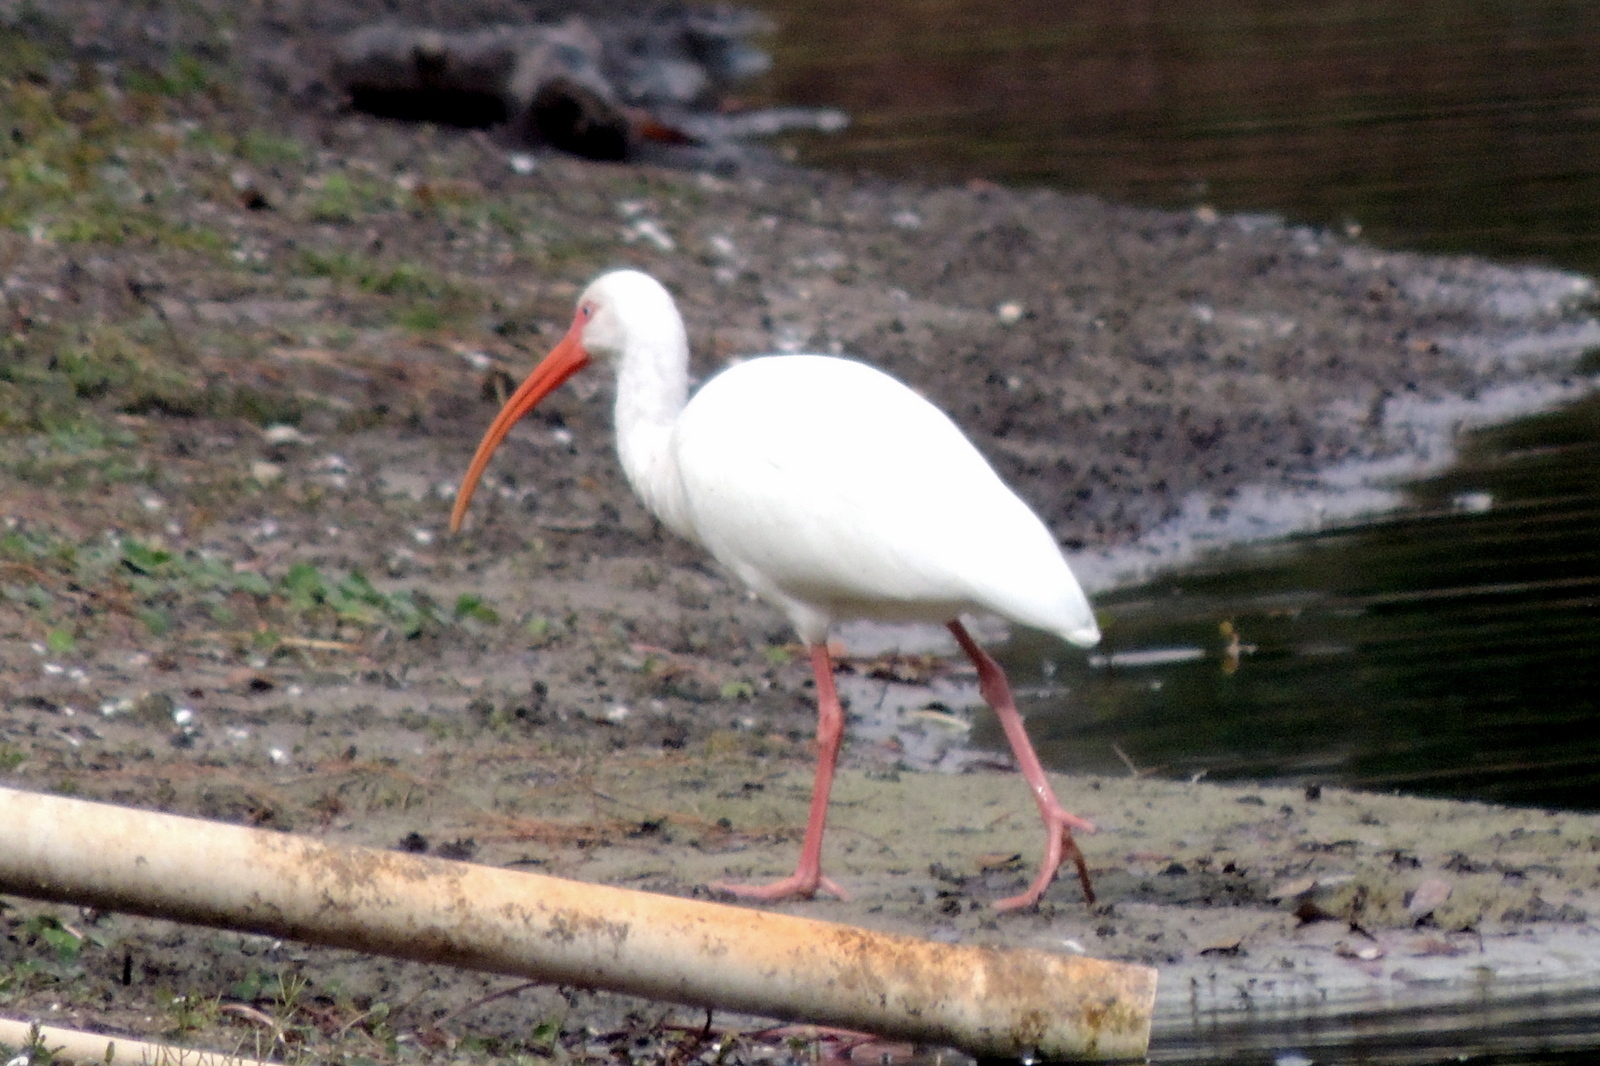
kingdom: Animalia
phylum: Chordata
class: Aves
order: Pelecaniformes
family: Threskiornithidae
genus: Eudocimus
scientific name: Eudocimus albus
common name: White ibis
